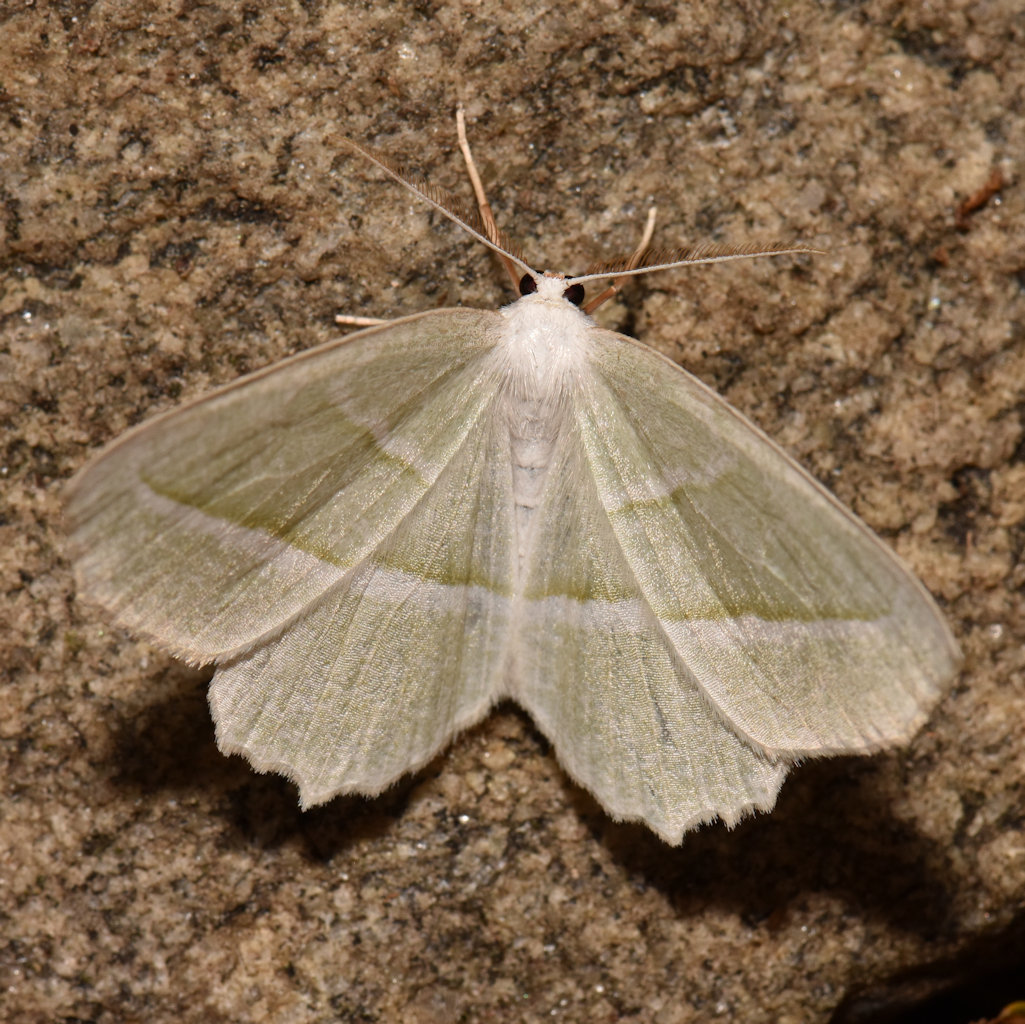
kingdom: Animalia
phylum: Arthropoda
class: Insecta
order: Lepidoptera
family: Geometridae
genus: Campaea
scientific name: Campaea perlata
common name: Fringed looper
